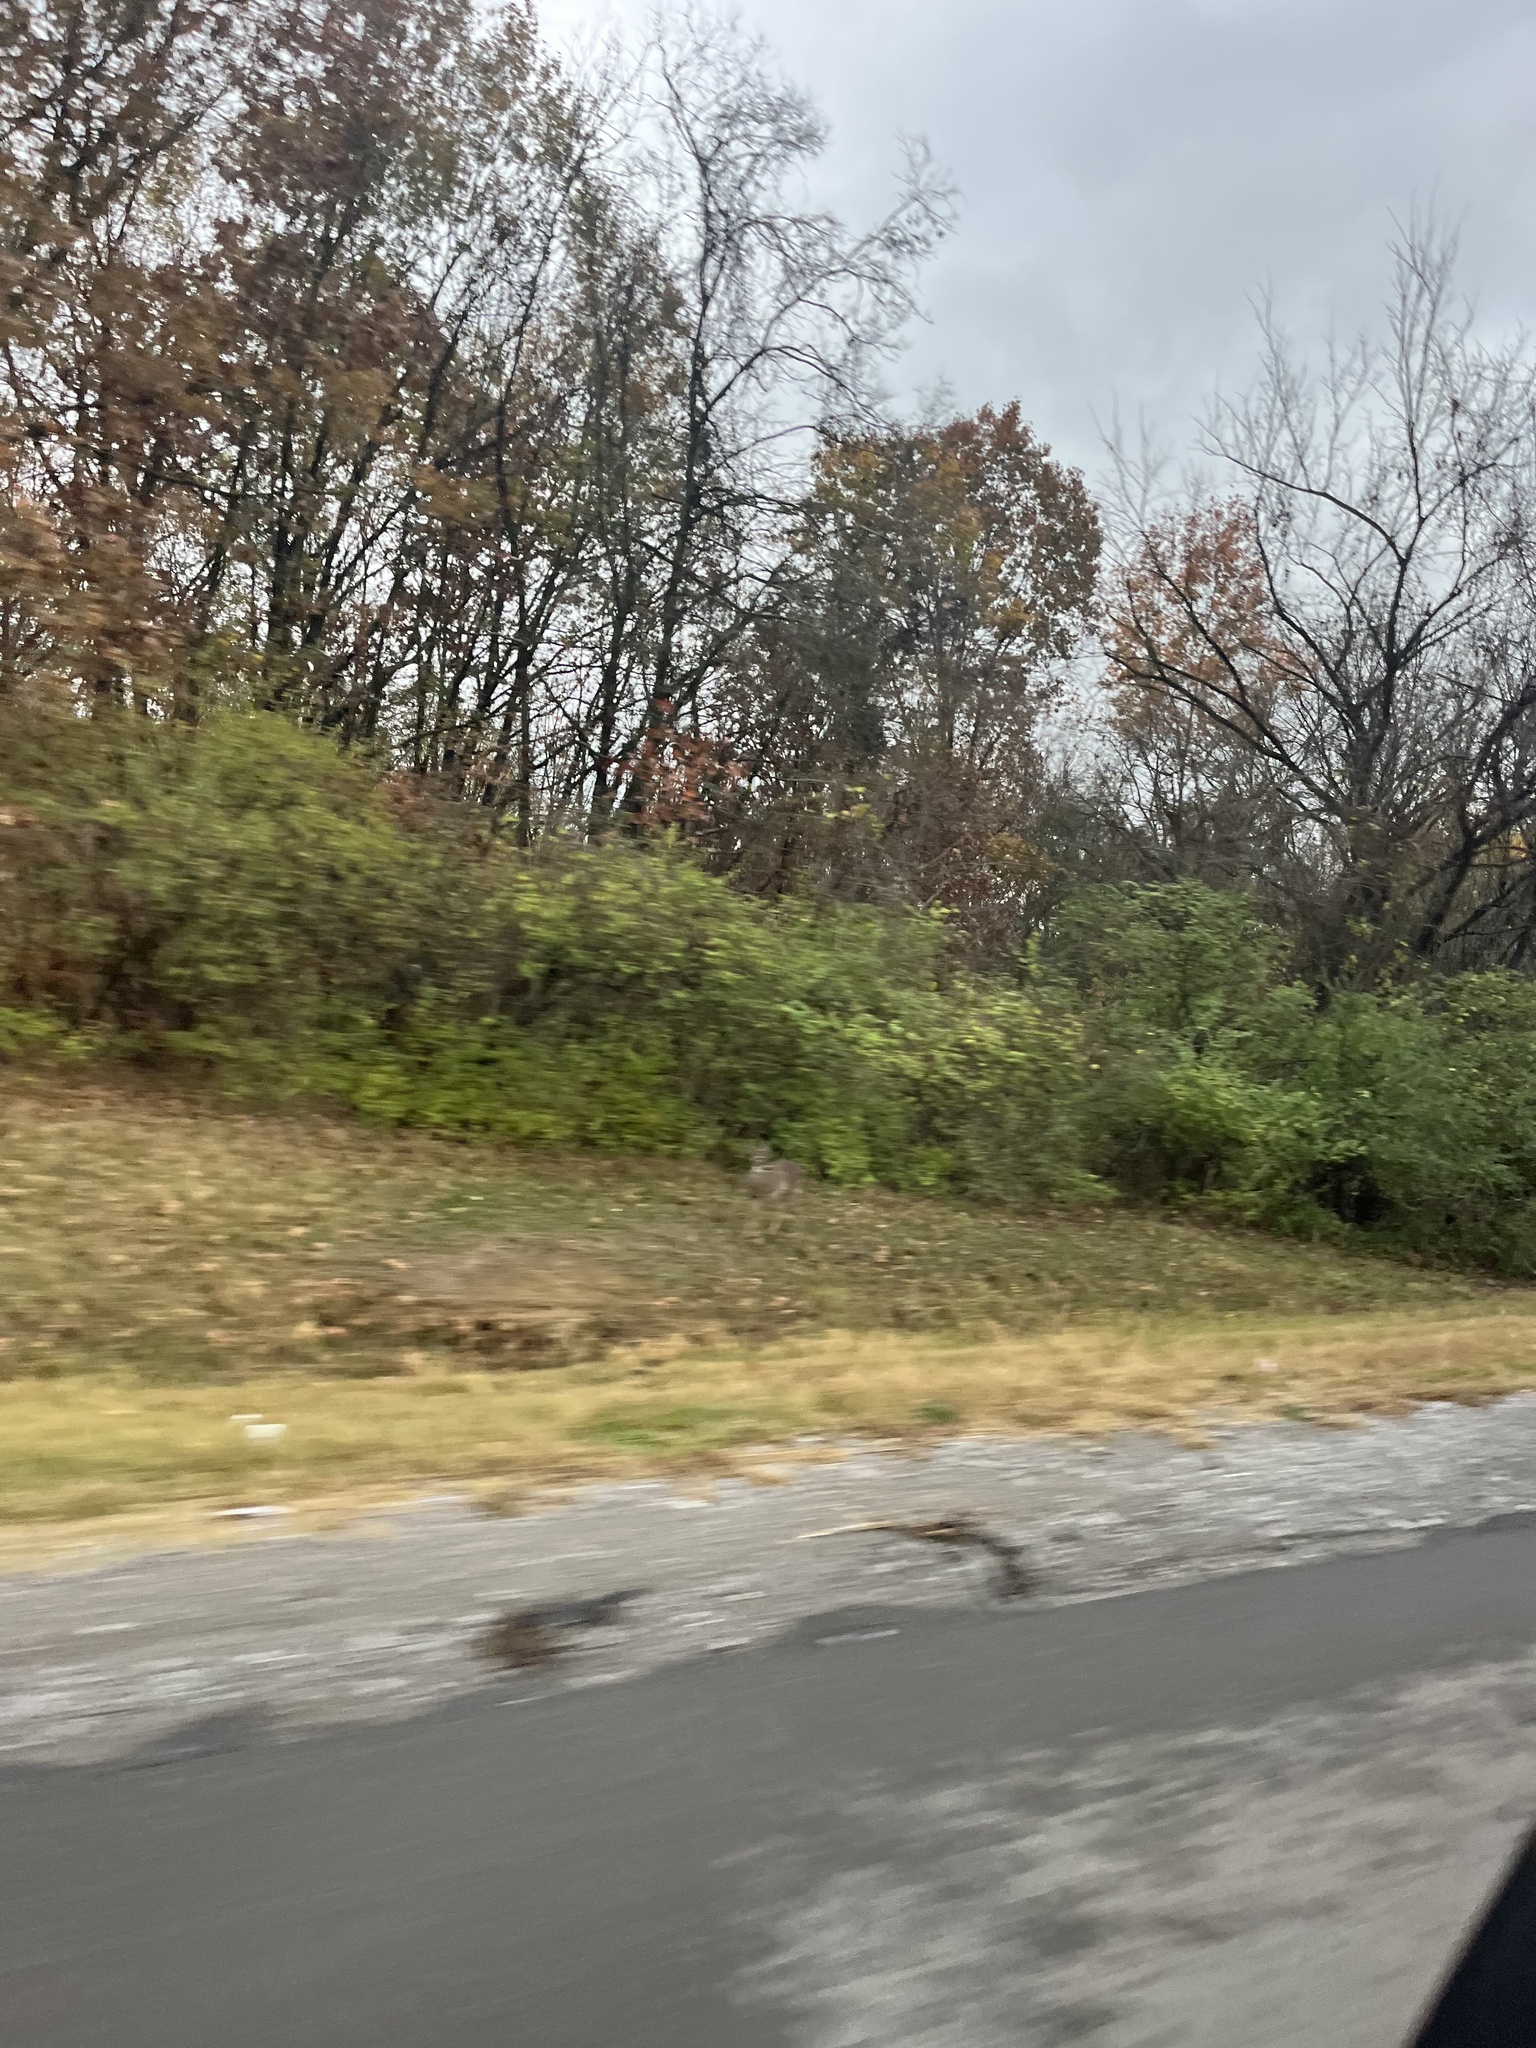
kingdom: Animalia
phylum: Chordata
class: Mammalia
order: Artiodactyla
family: Cervidae
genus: Odocoileus
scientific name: Odocoileus virginianus
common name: White-tailed deer
